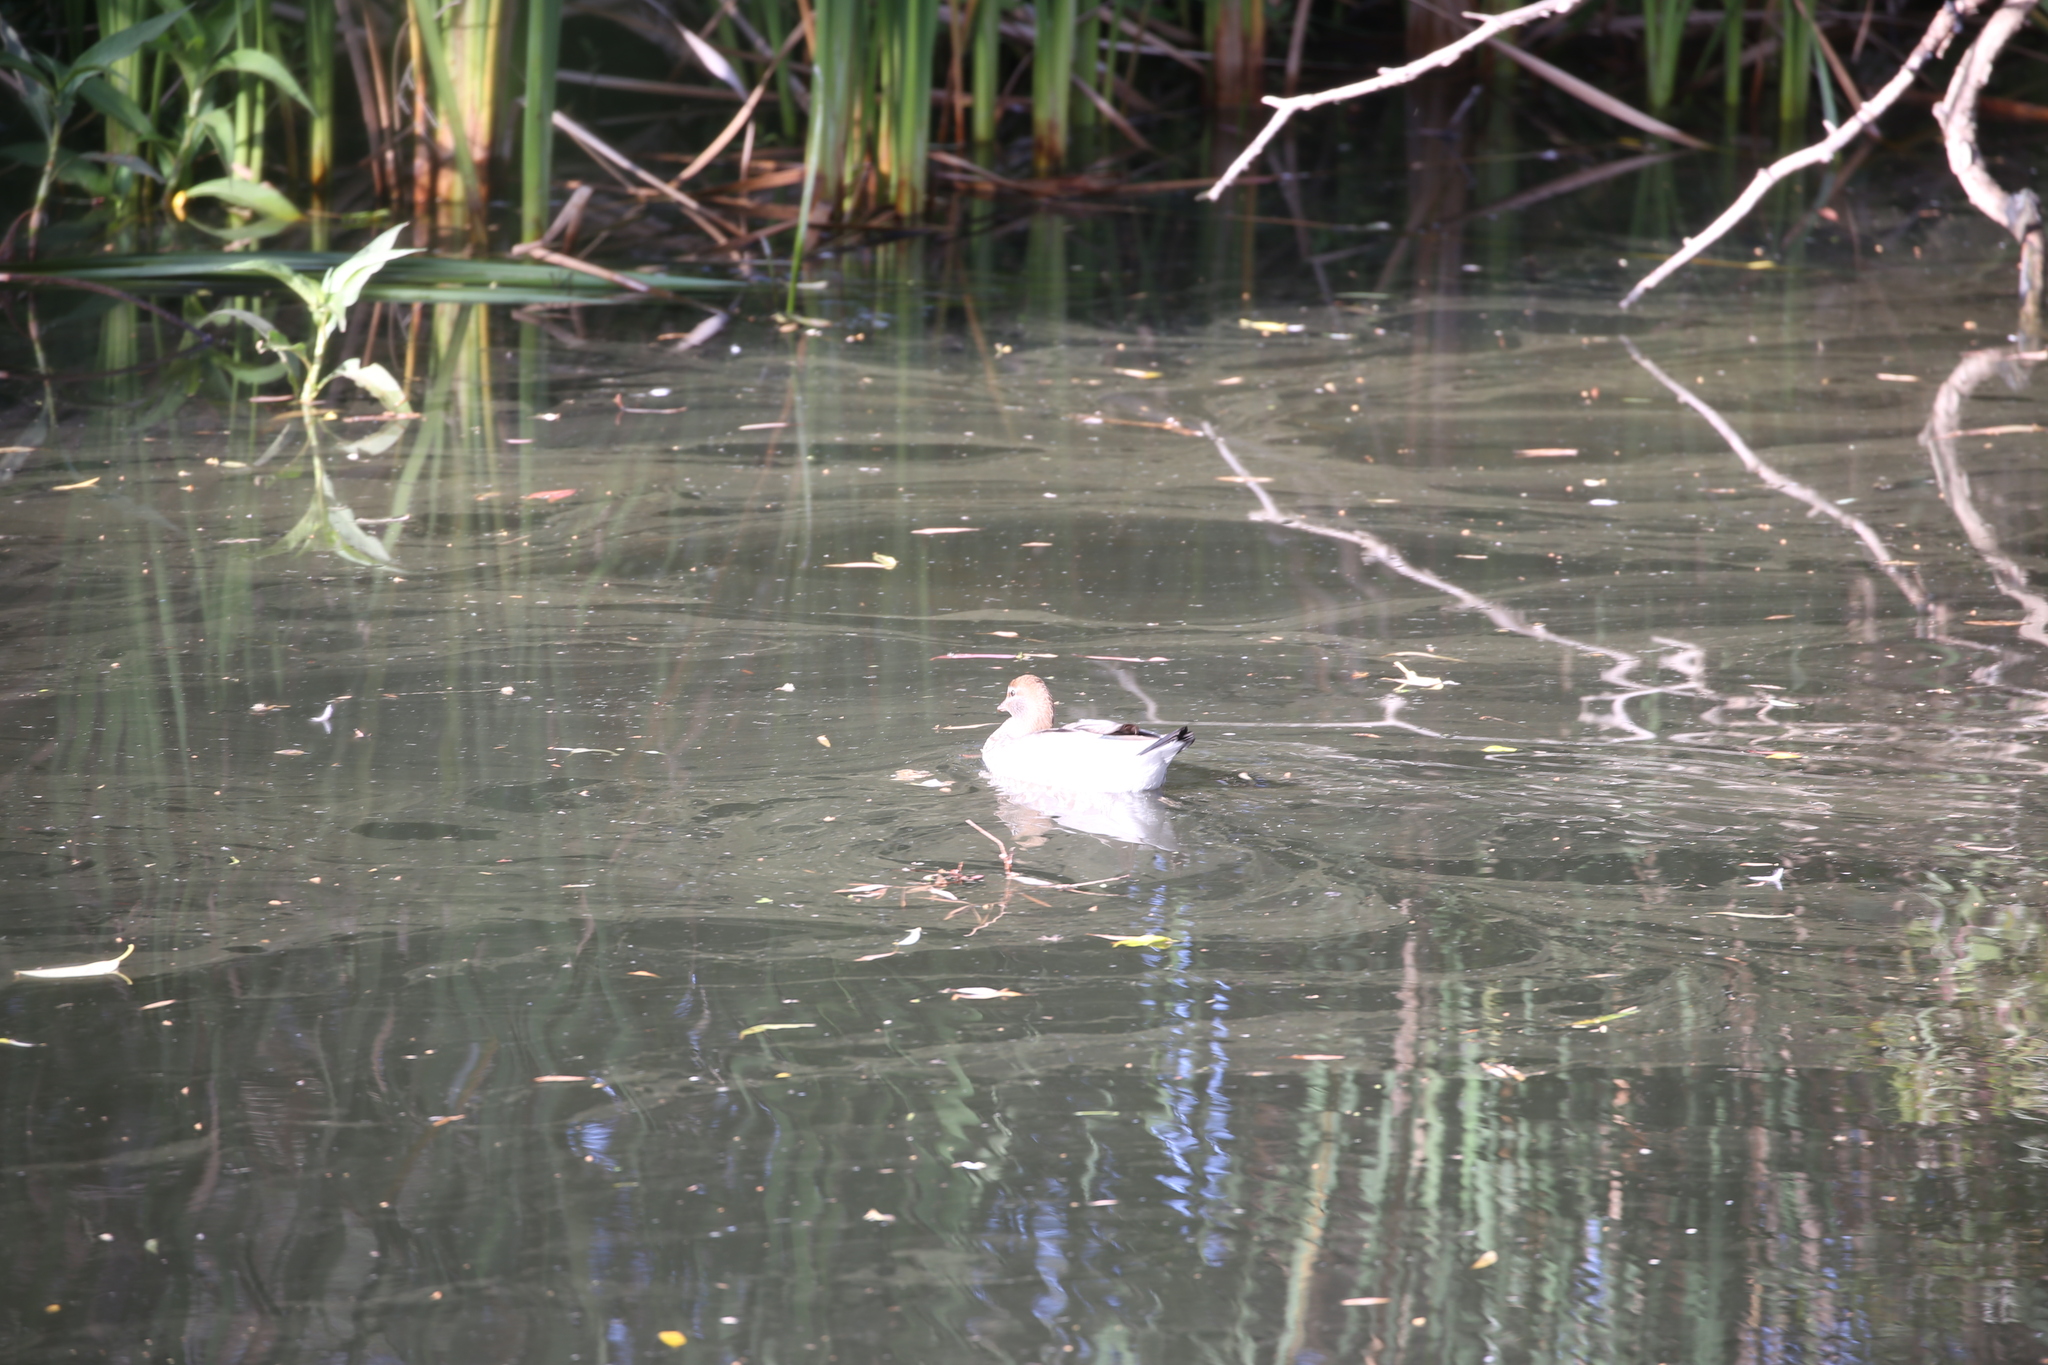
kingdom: Animalia
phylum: Chordata
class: Aves
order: Anseriformes
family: Anatidae
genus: Chenonetta
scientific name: Chenonetta jubata
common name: Maned duck
